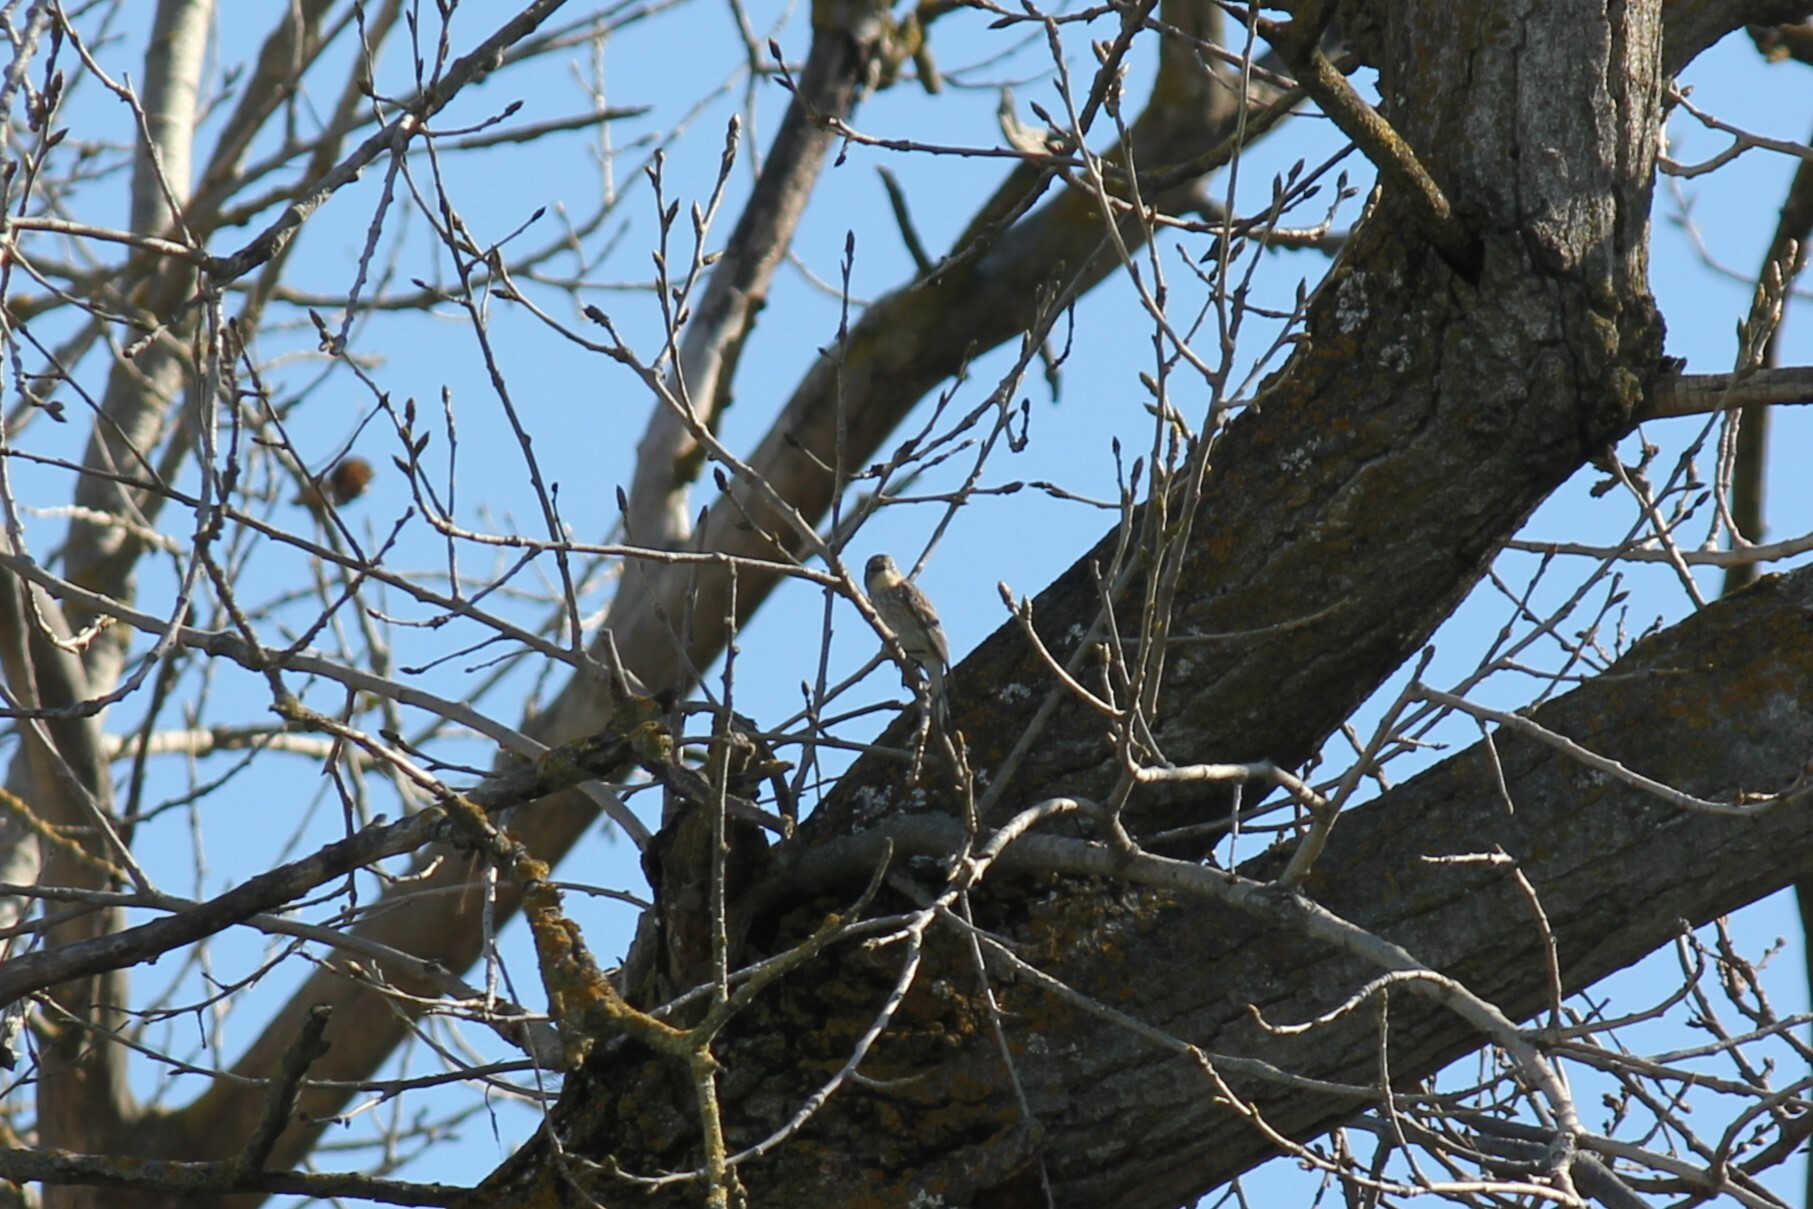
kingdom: Animalia
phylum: Chordata
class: Aves
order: Passeriformes
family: Parulidae
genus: Setophaga
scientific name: Setophaga coronata
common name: Myrtle warbler
